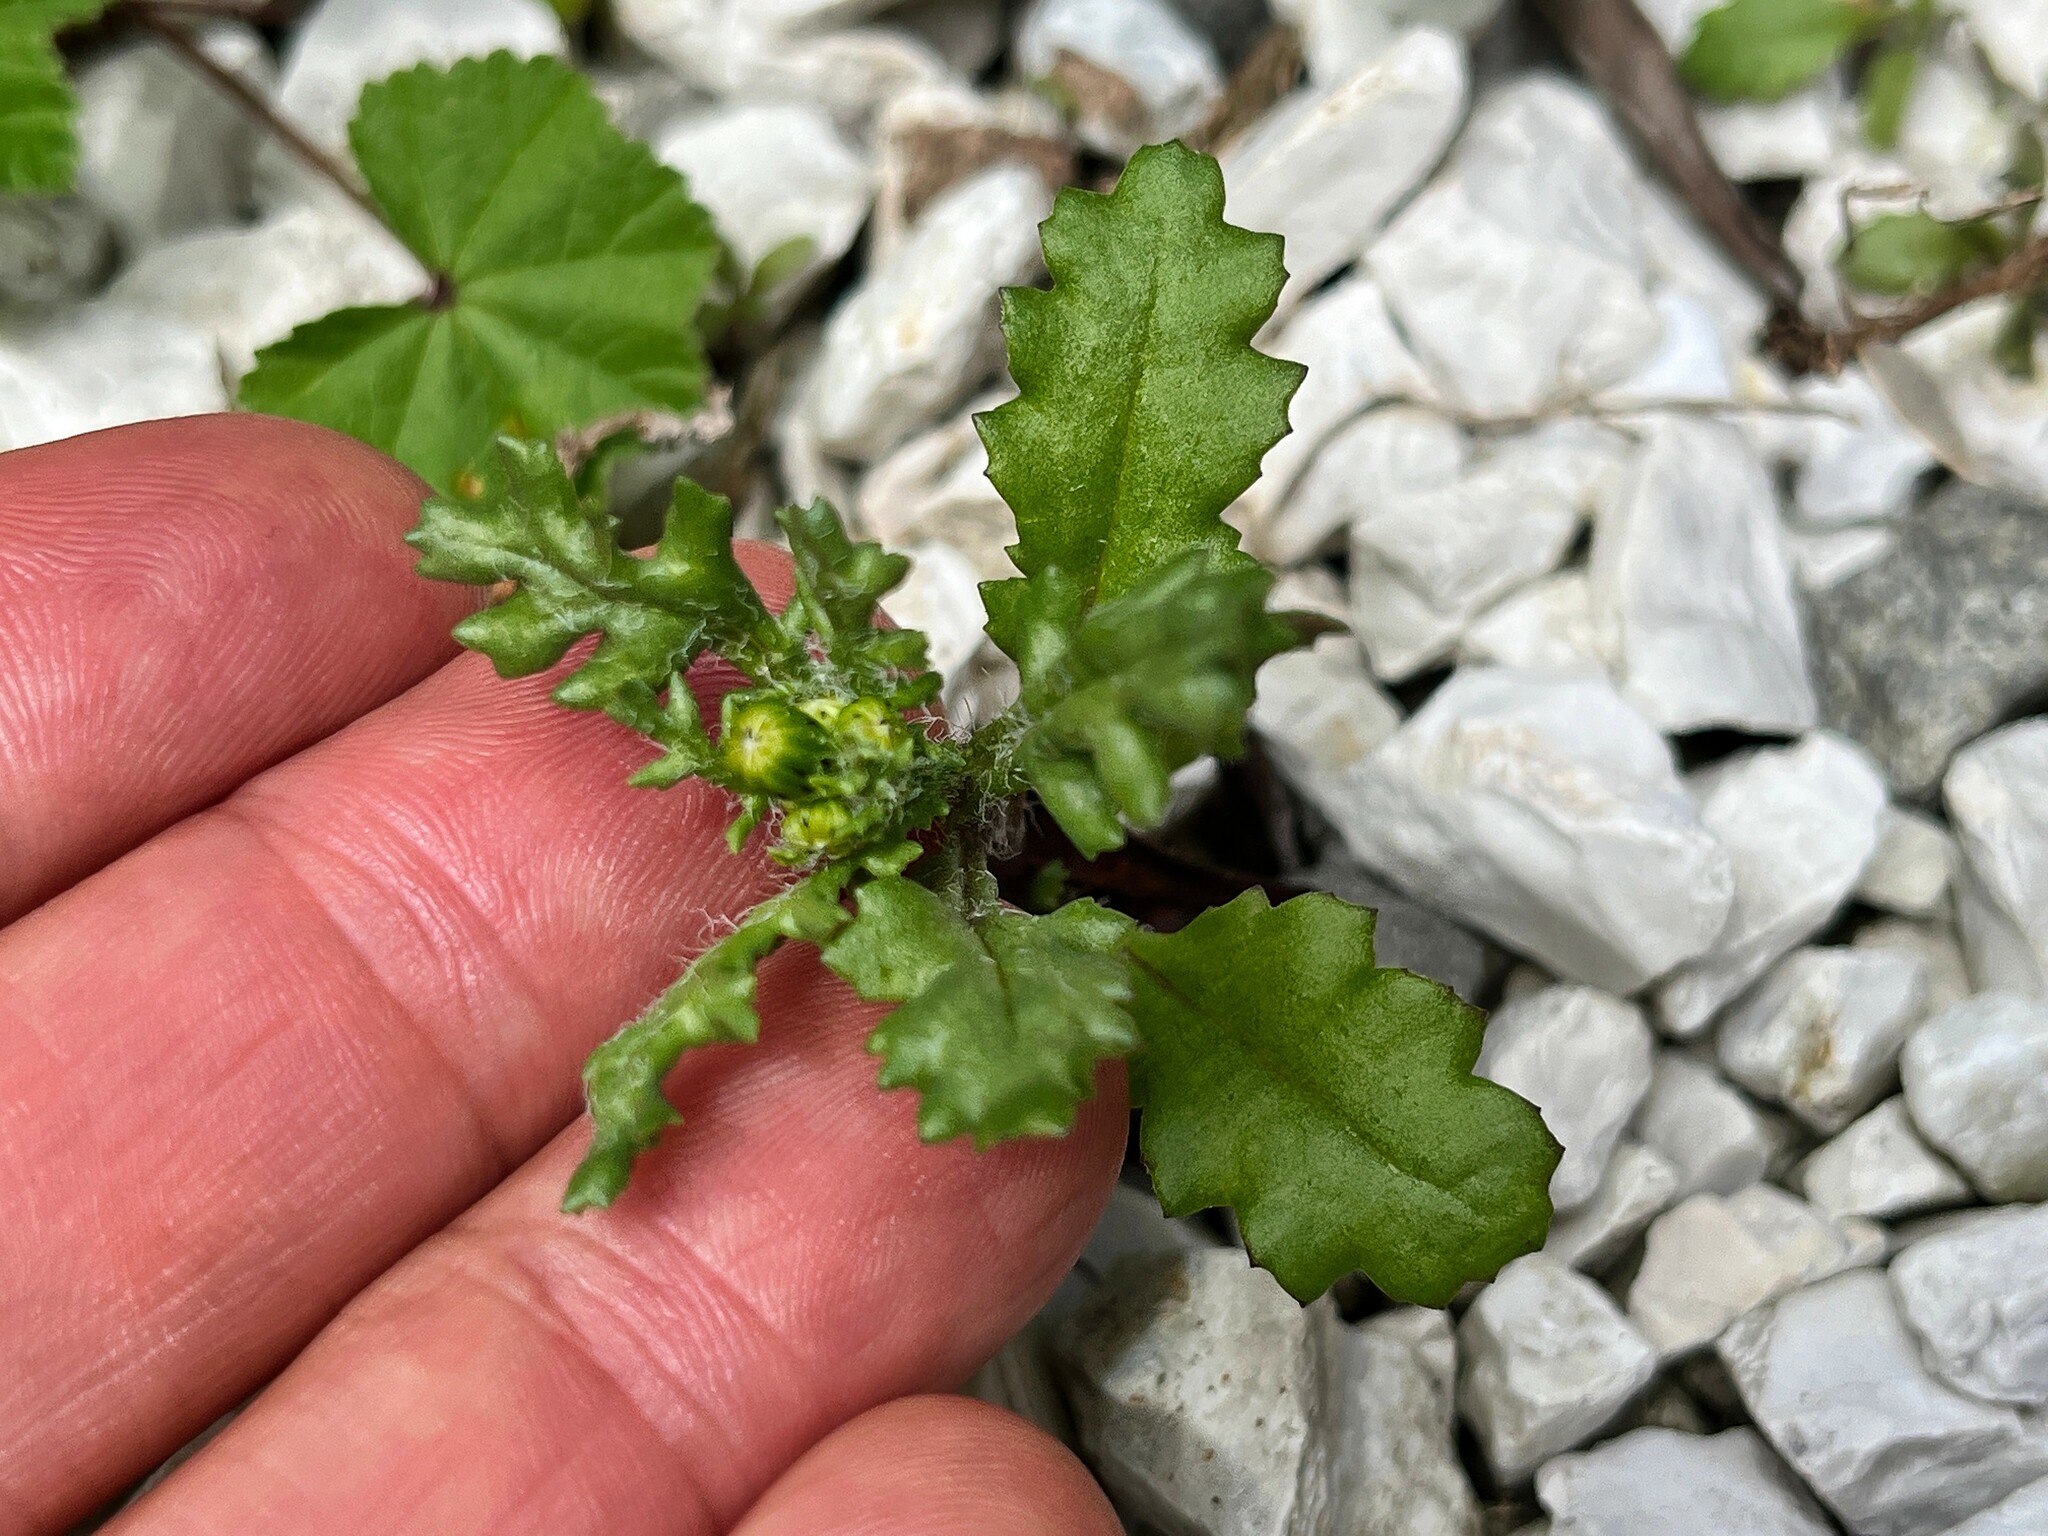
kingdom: Plantae
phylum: Tracheophyta
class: Magnoliopsida
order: Asterales
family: Asteraceae
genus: Senecio
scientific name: Senecio vulgaris
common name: Old-man-in-the-spring
